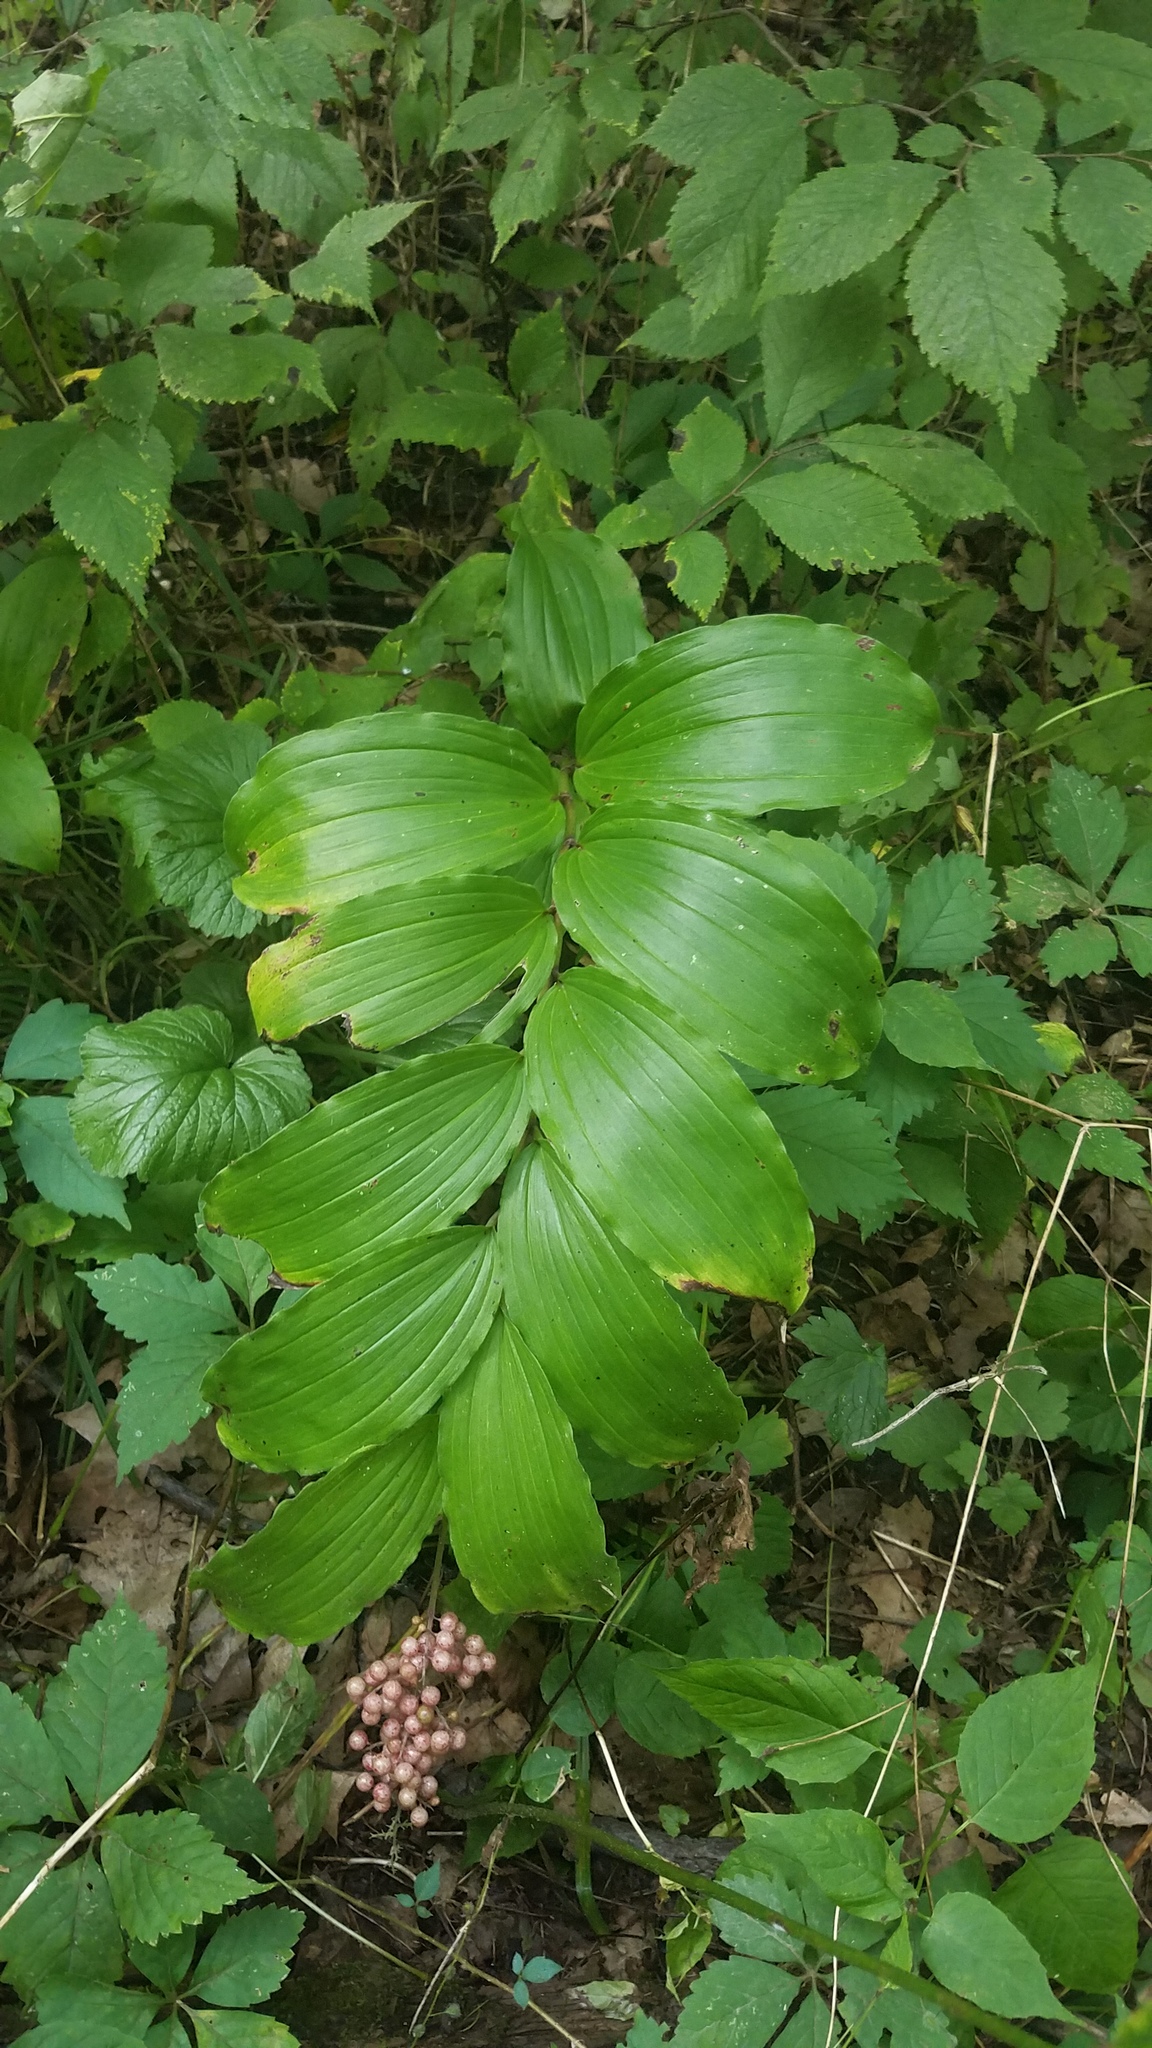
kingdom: Plantae
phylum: Tracheophyta
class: Liliopsida
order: Asparagales
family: Asparagaceae
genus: Maianthemum
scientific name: Maianthemum racemosum
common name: False spikenard
